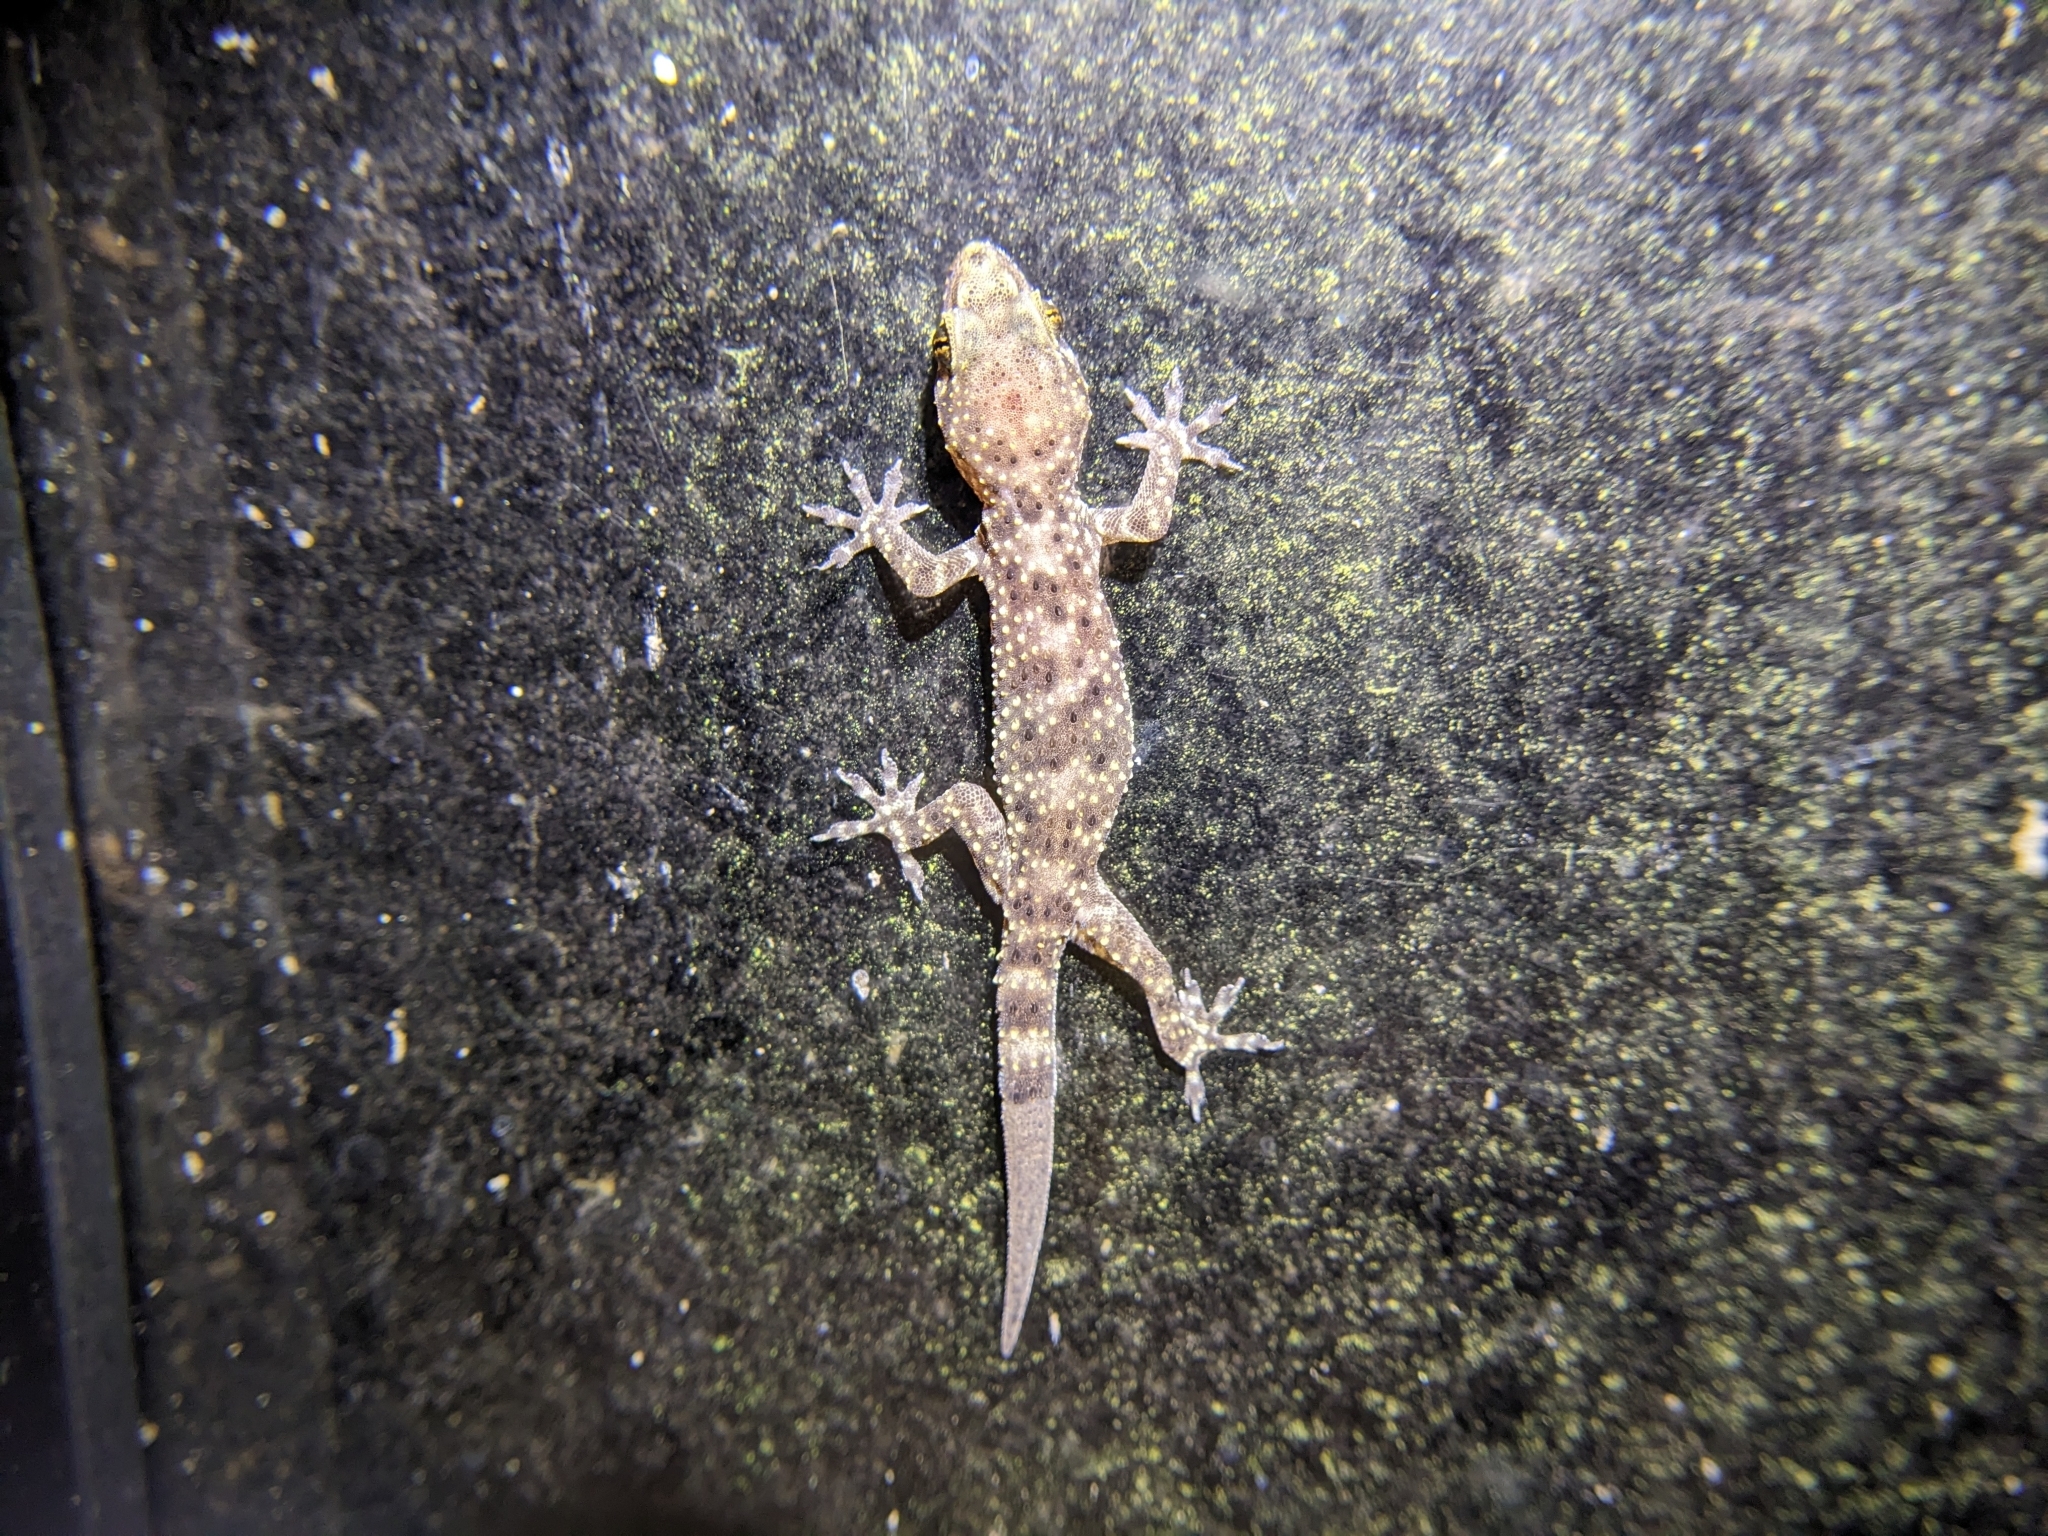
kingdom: Animalia
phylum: Chordata
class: Squamata
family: Gekkonidae
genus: Hemidactylus
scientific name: Hemidactylus turcicus
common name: Turkish gecko
